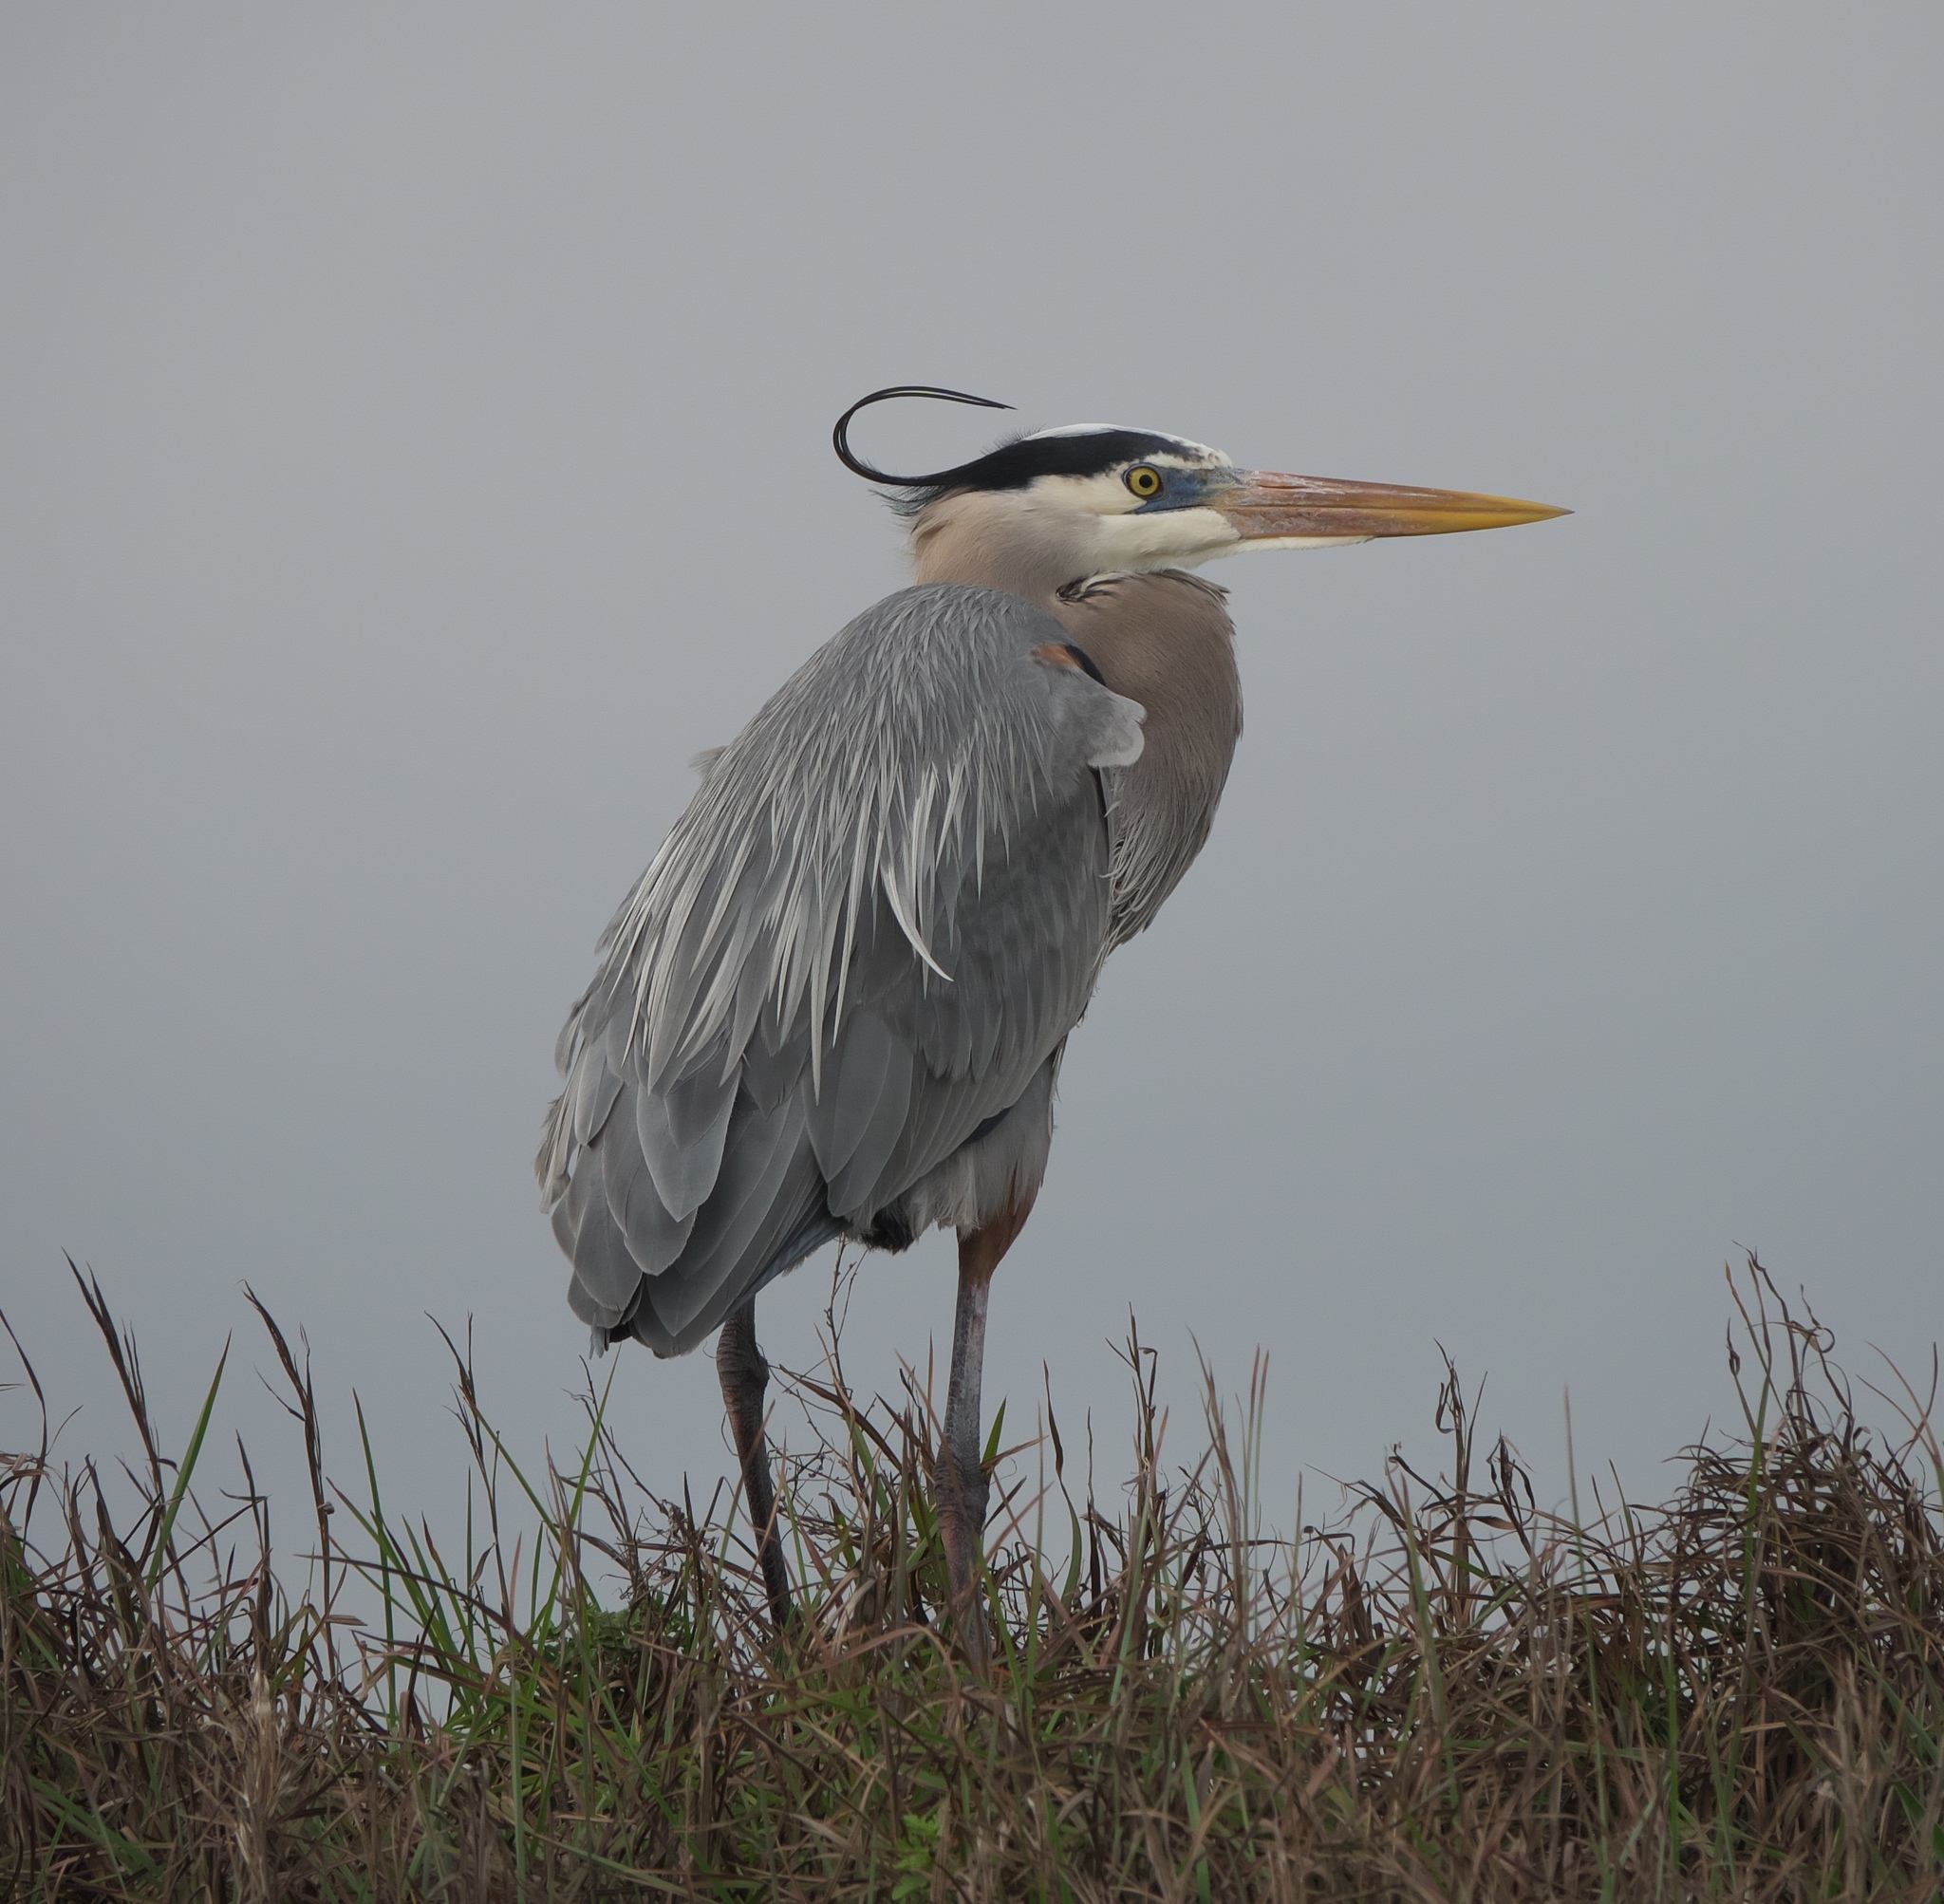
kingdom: Animalia
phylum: Chordata
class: Aves
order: Pelecaniformes
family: Ardeidae
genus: Ardea
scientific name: Ardea herodias
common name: Great blue heron
